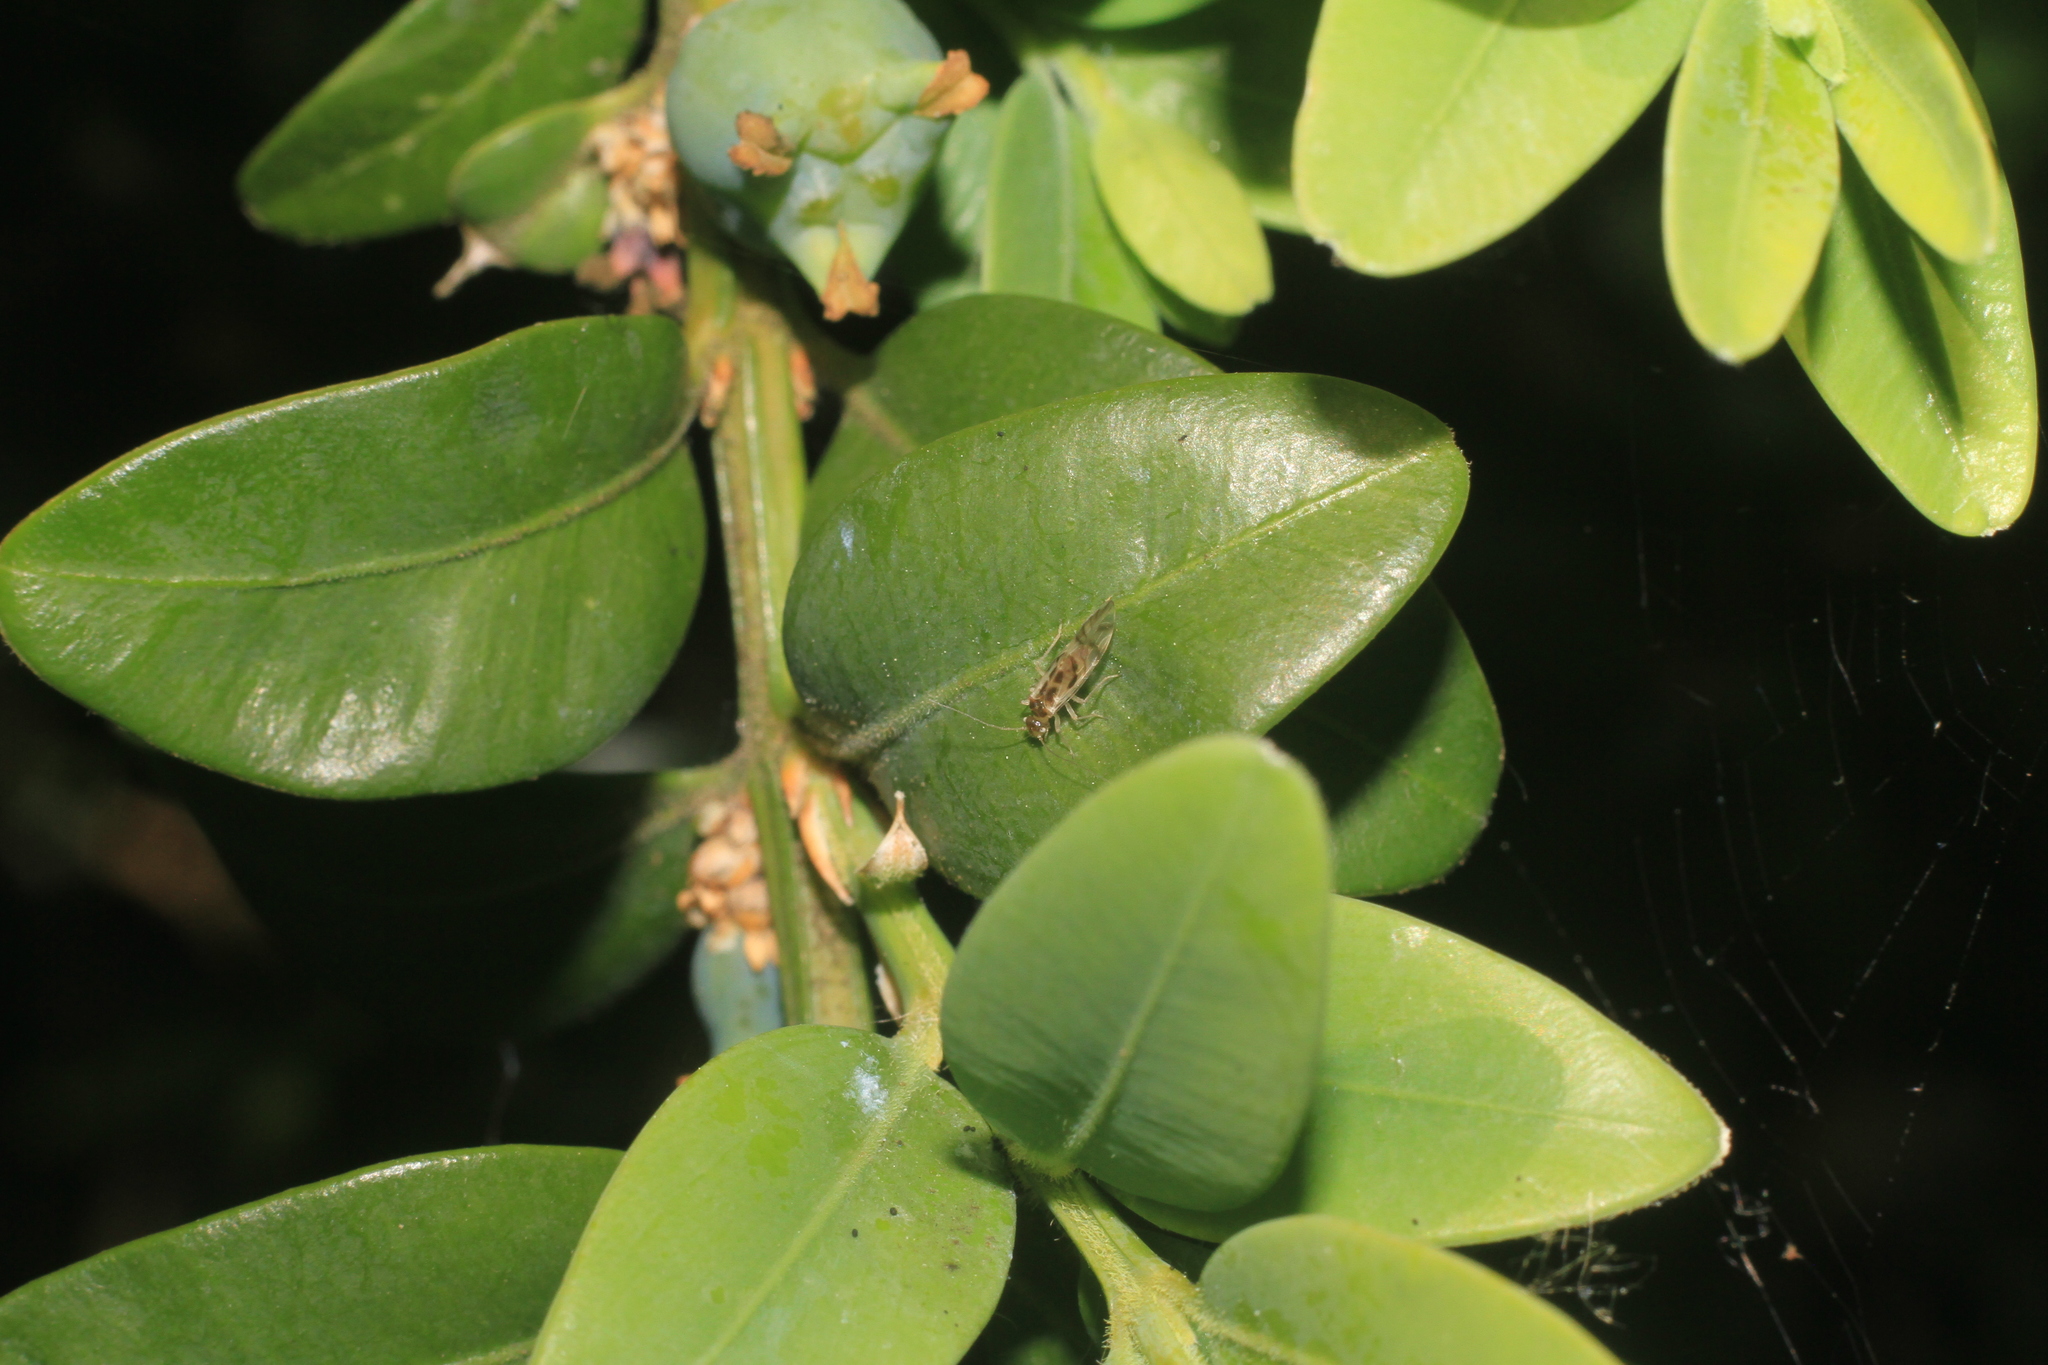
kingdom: Animalia
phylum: Arthropoda
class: Insecta
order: Psocodea
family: Stenopsocidae
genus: Graphopsocus
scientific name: Graphopsocus cruciatus
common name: Lizard bark louse
